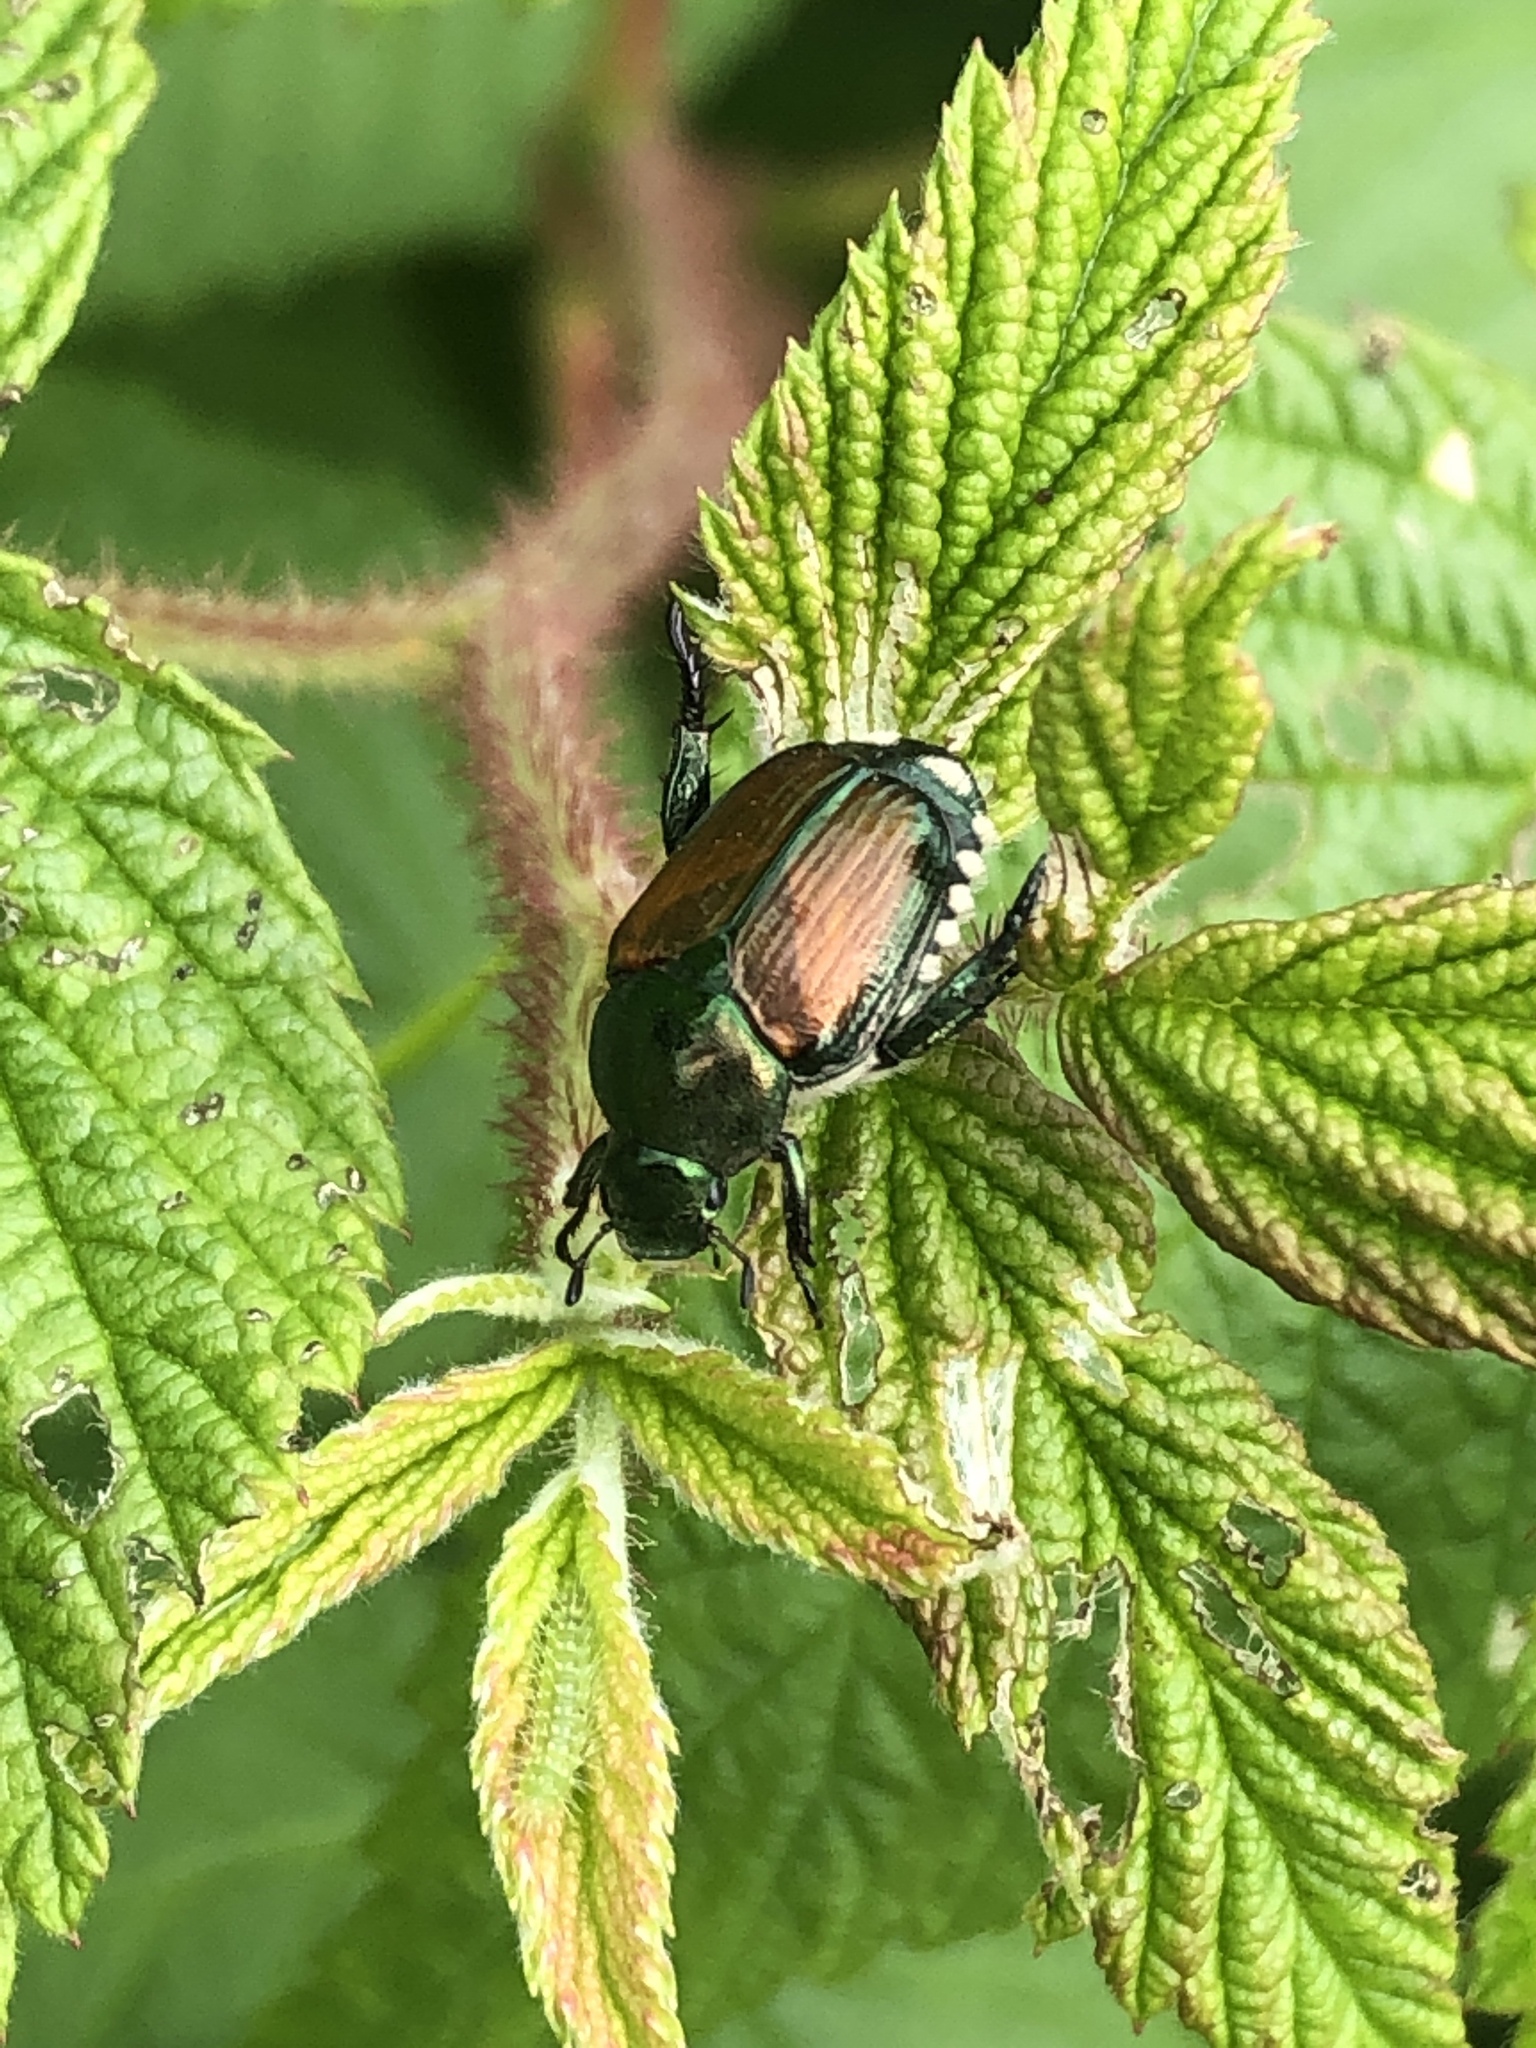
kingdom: Animalia
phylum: Arthropoda
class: Insecta
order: Coleoptera
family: Scarabaeidae
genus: Popillia
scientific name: Popillia japonica
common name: Japanese beetle
